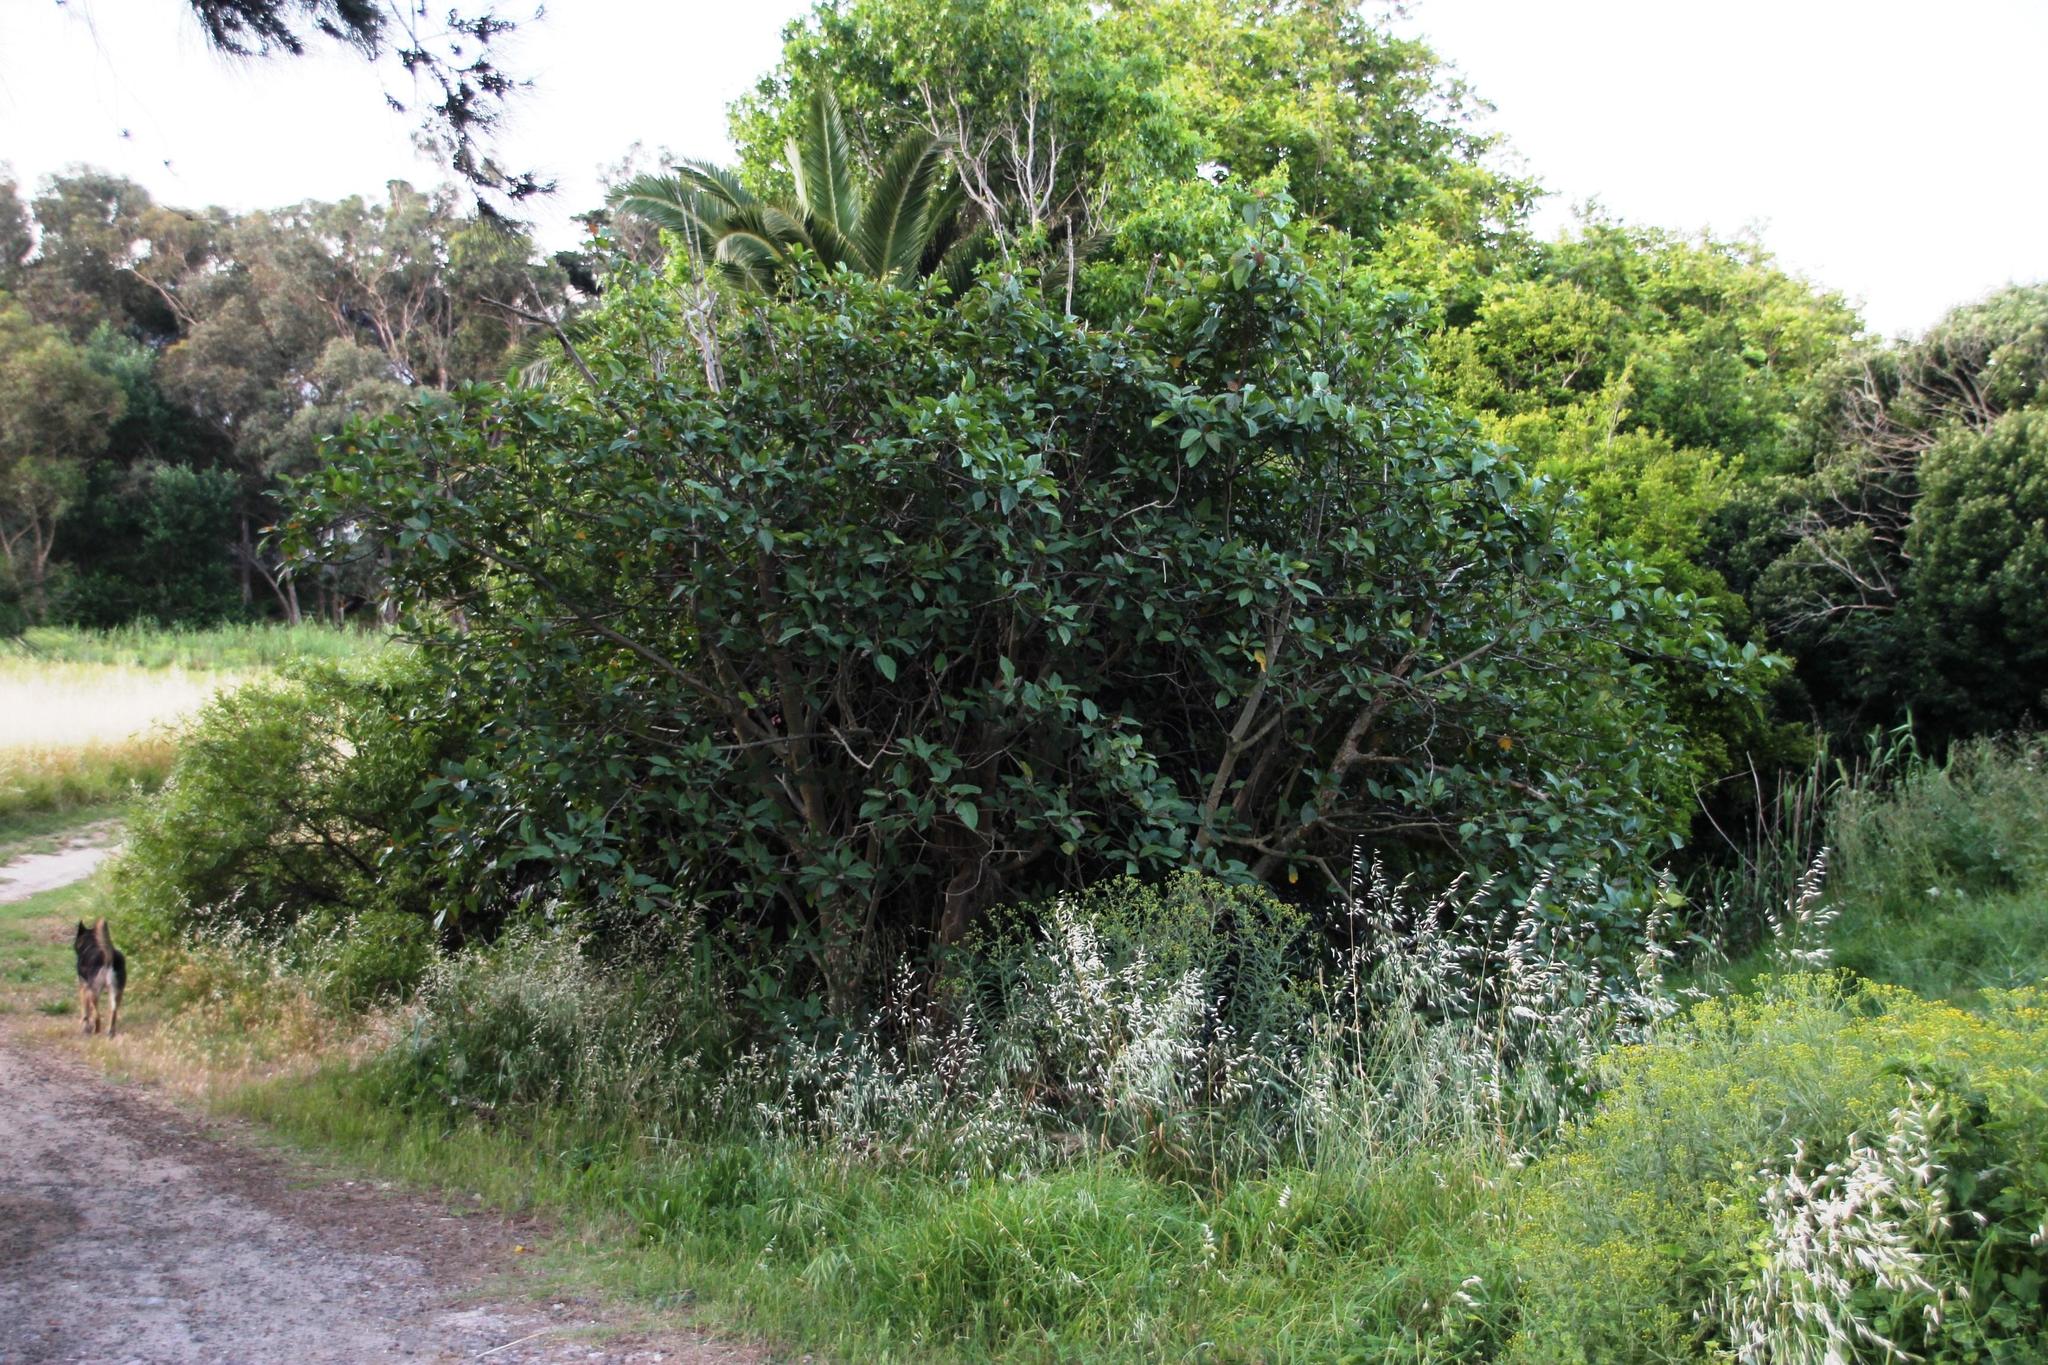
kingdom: Plantae
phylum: Tracheophyta
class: Magnoliopsida
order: Rosales
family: Moraceae
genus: Ficus
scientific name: Ficus sur
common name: Cape fig
